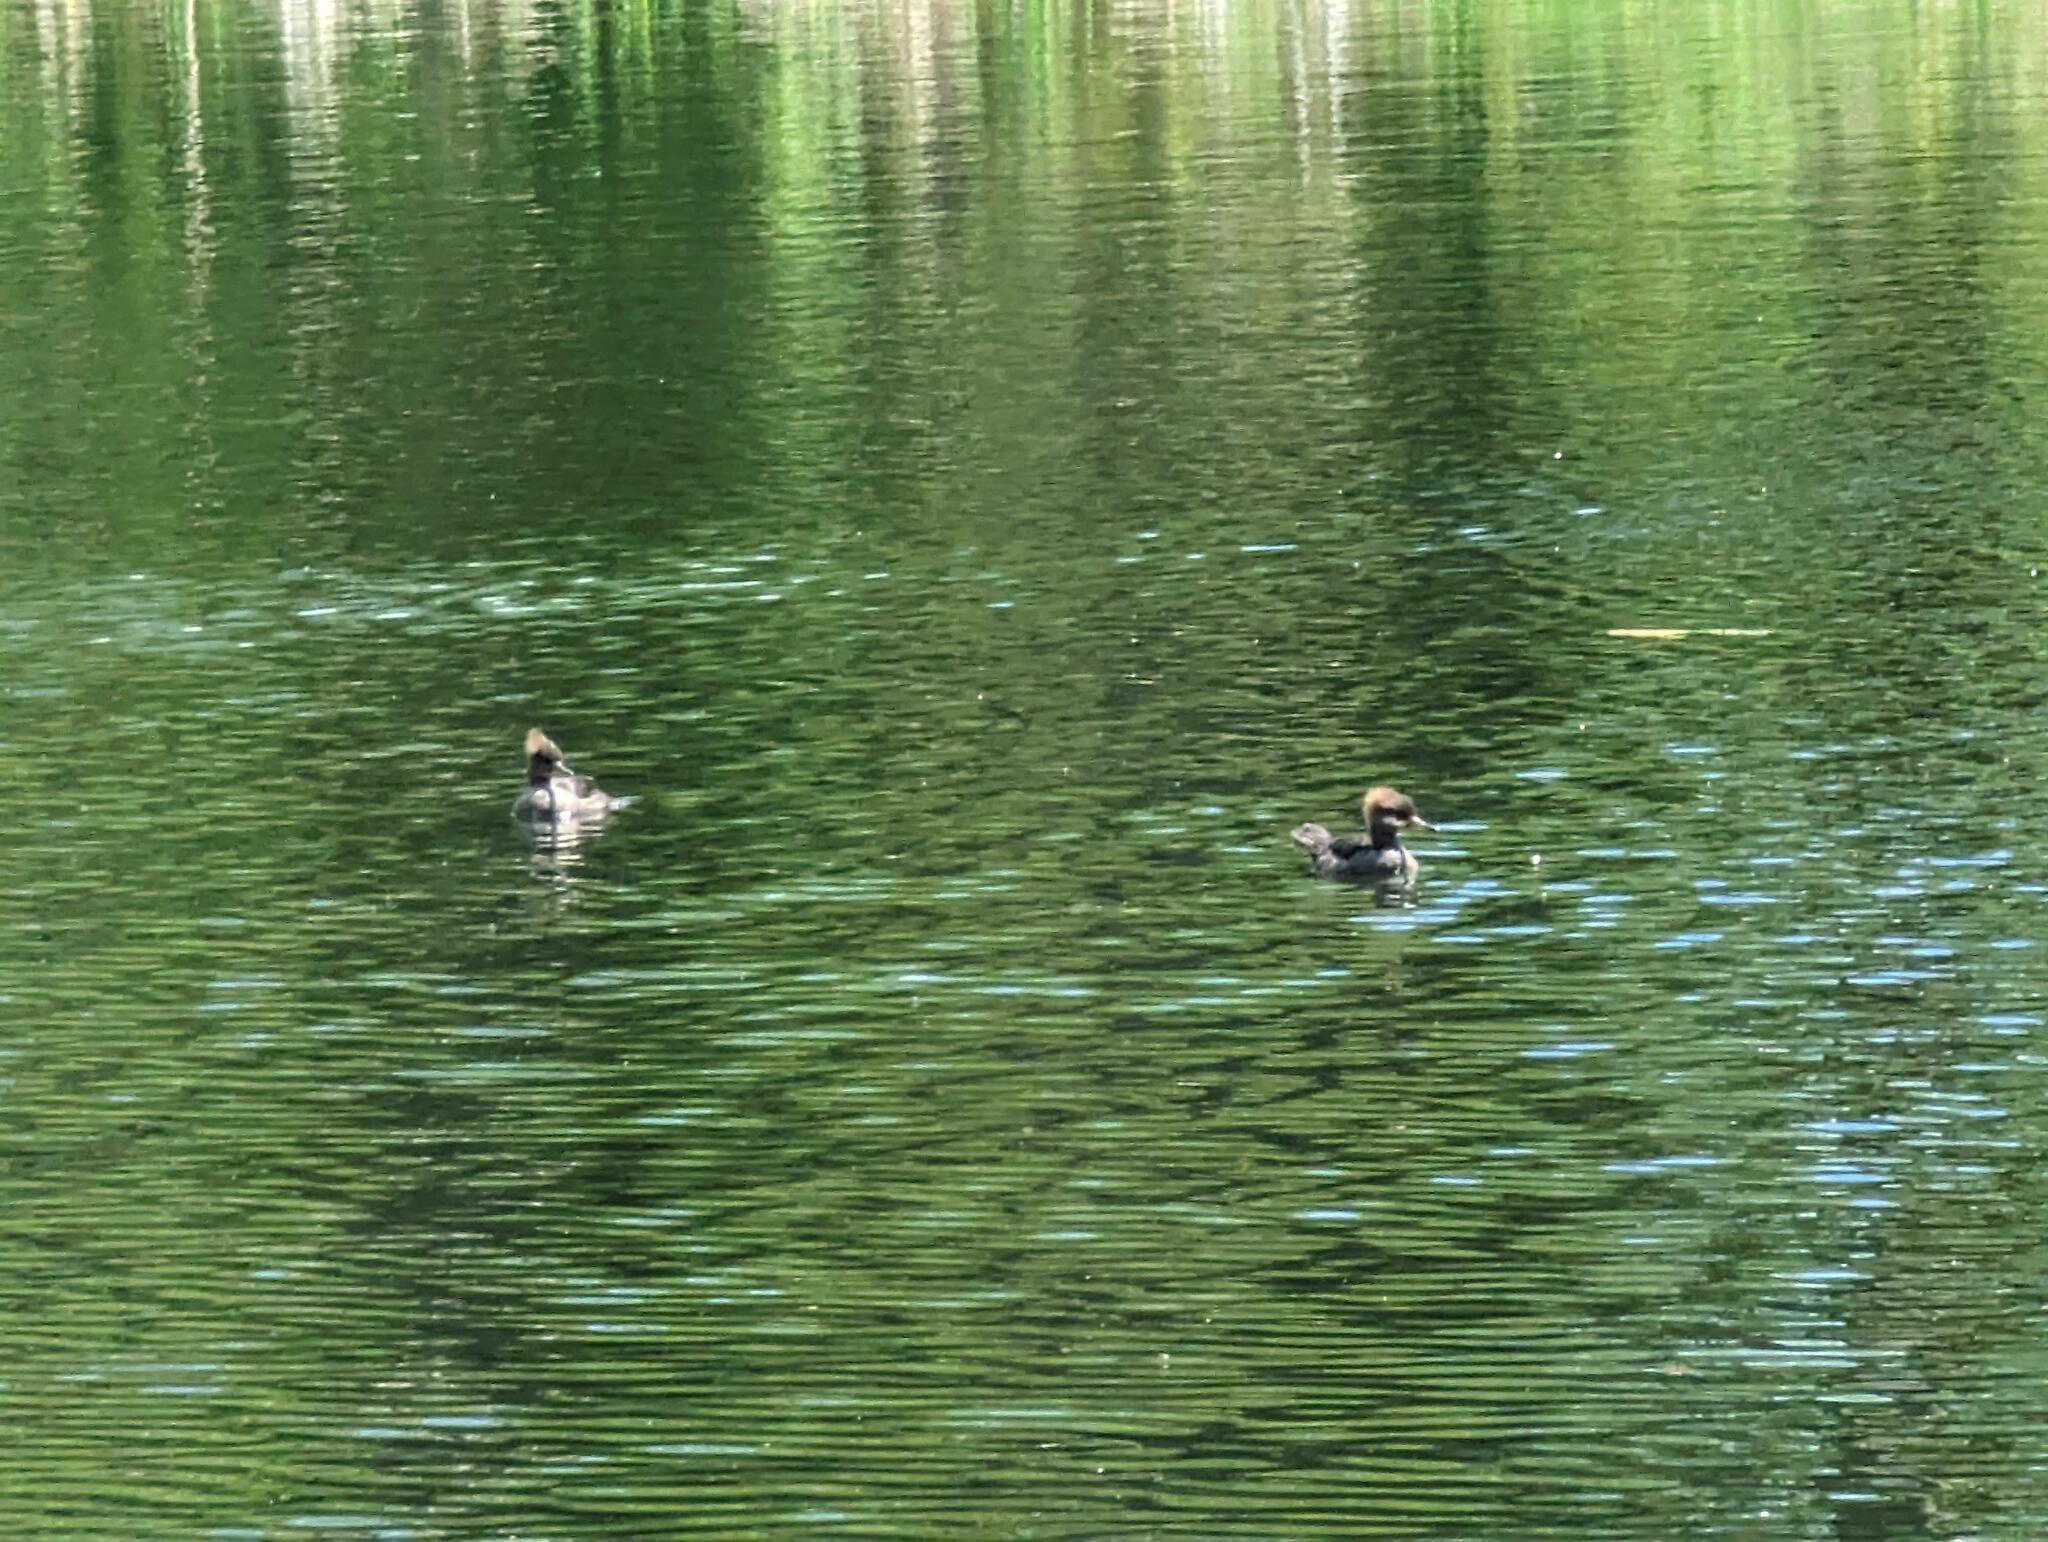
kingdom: Animalia
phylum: Chordata
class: Aves
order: Anseriformes
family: Anatidae
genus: Branta
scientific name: Branta canadensis
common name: Canada goose
